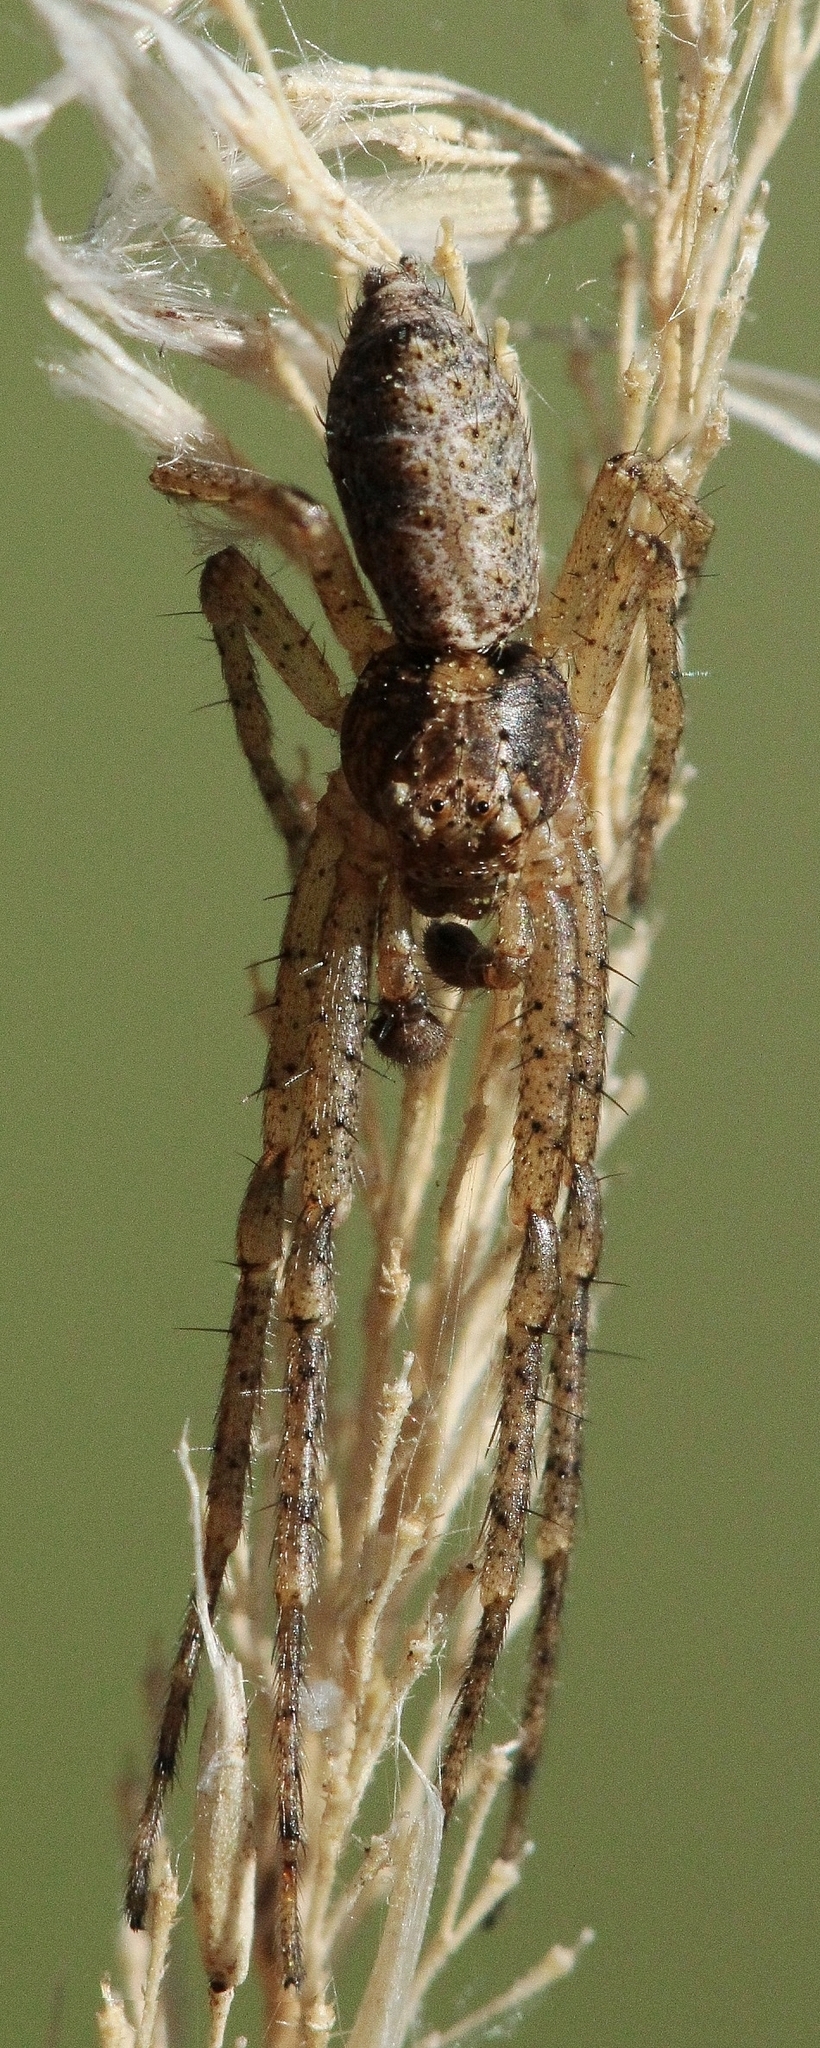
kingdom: Animalia
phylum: Arthropoda
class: Arachnida
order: Araneae
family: Thomisidae
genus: Tmarus
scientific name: Tmarus
